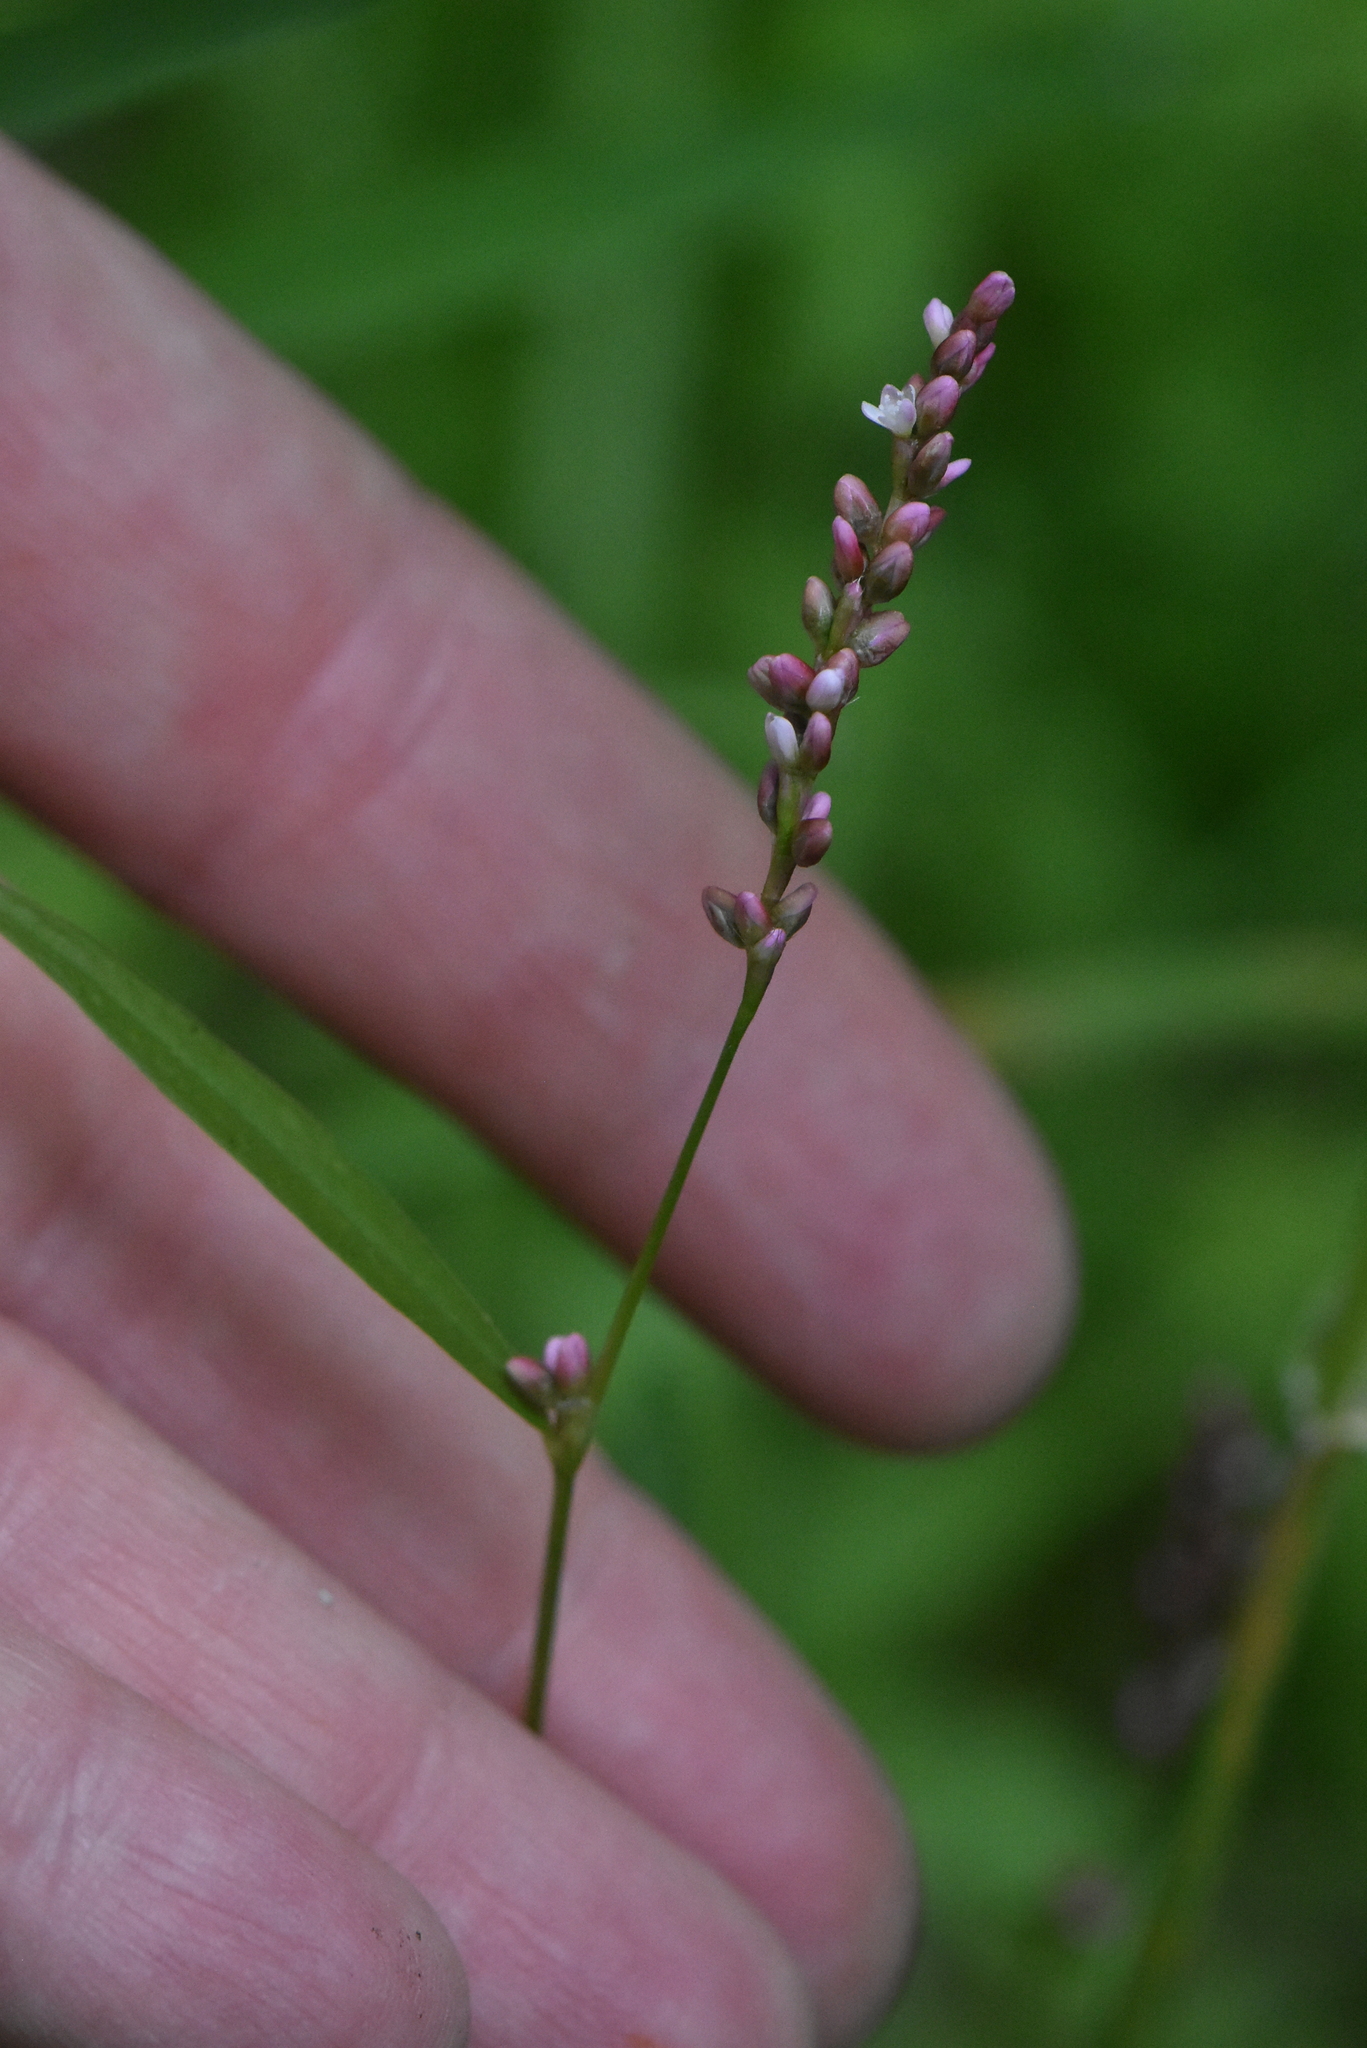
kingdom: Plantae
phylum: Tracheophyta
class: Magnoliopsida
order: Caryophyllales
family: Polygonaceae
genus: Persicaria
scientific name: Persicaria minor
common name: Small water-pepper
